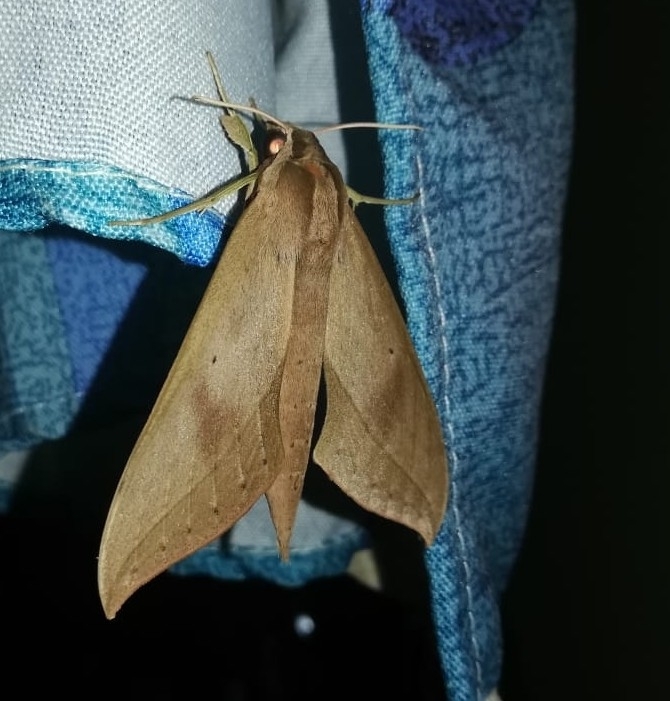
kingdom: Animalia
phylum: Arthropoda
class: Insecta
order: Lepidoptera
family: Sphingidae
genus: Xylophanes
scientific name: Xylophanes anubus
